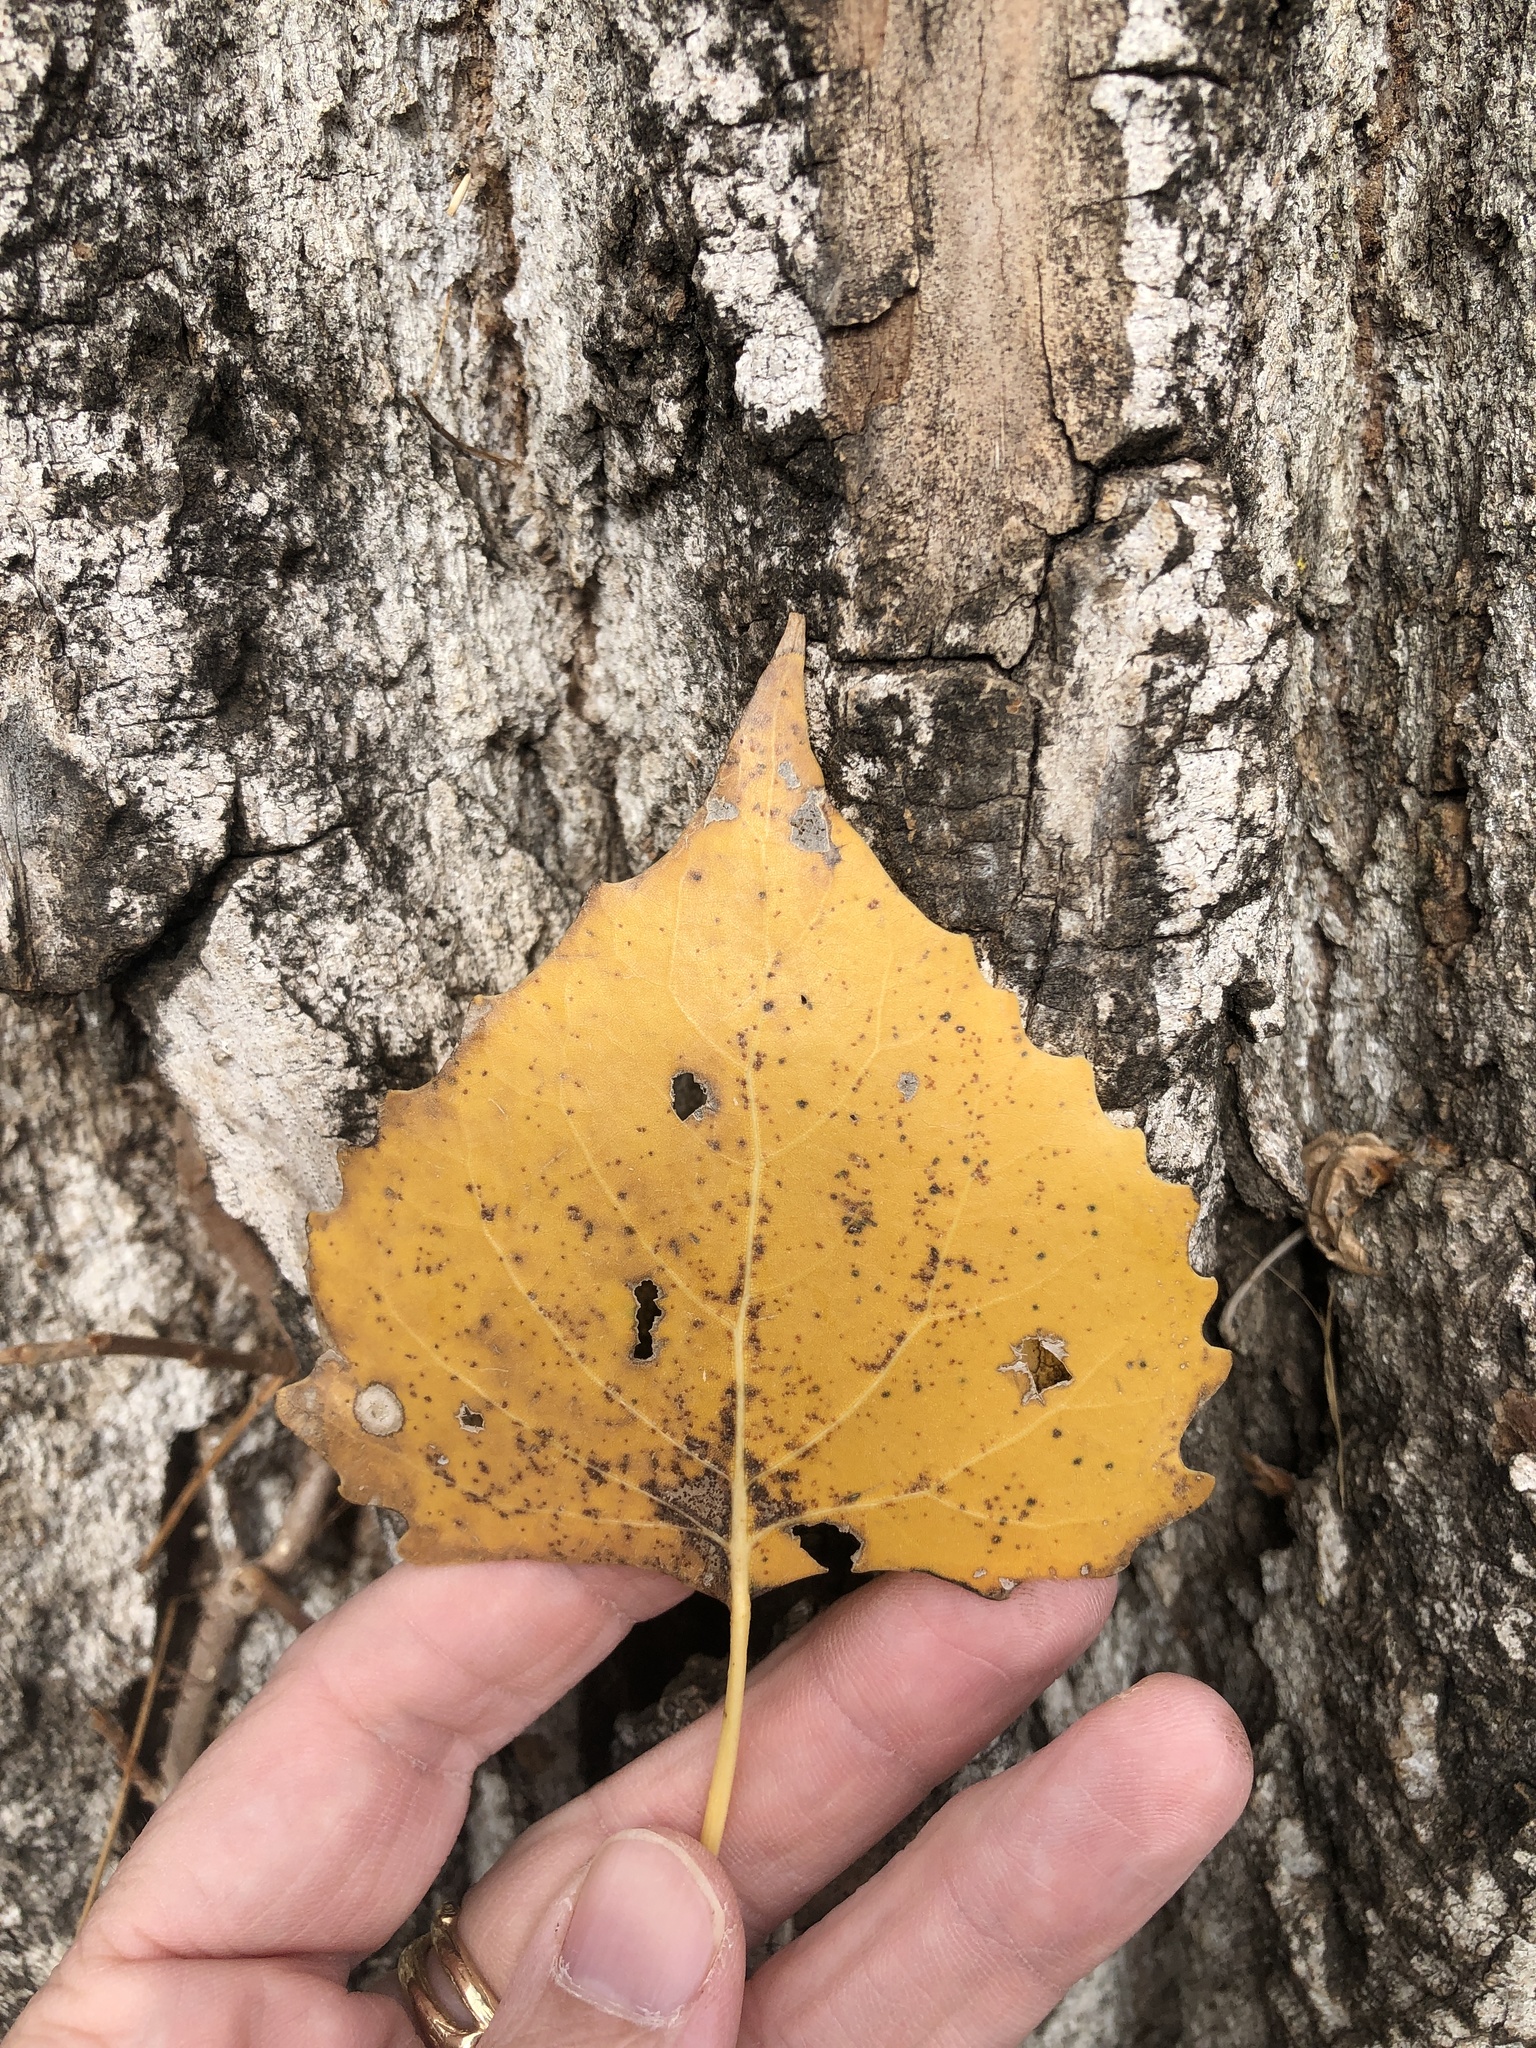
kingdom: Plantae
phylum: Tracheophyta
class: Magnoliopsida
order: Malpighiales
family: Salicaceae
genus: Populus
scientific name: Populus deltoides
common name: Eastern cottonwood
